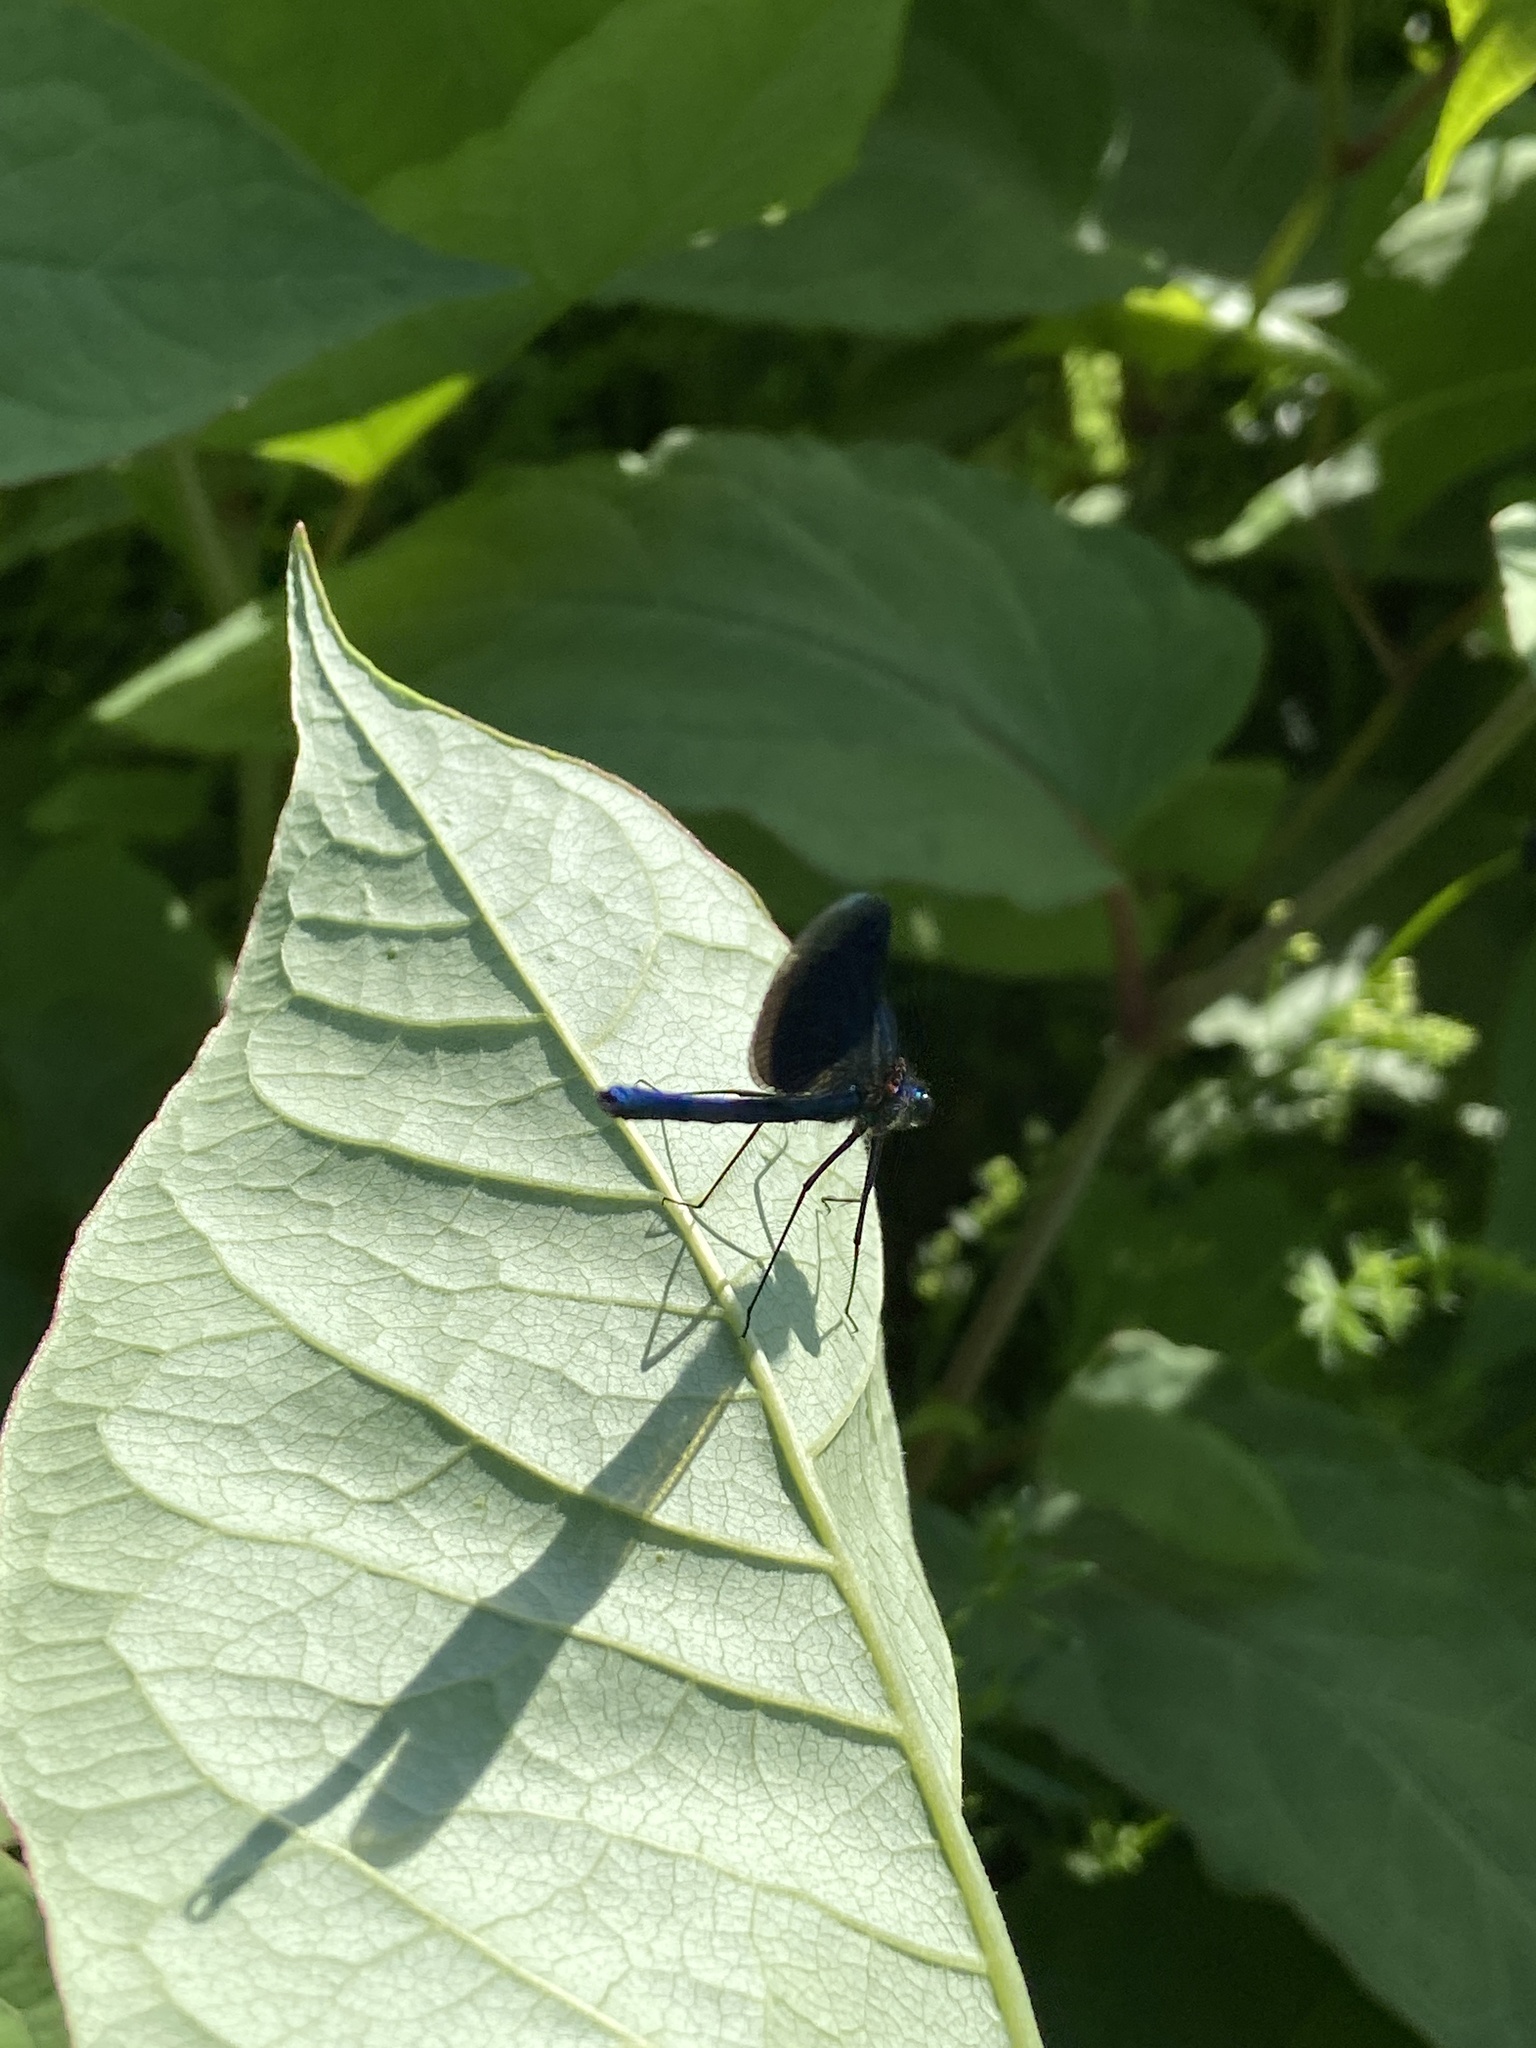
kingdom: Animalia
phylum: Arthropoda
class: Insecta
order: Odonata
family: Calopterygidae
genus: Calopteryx
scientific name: Calopteryx splendens
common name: Banded demoiselle
